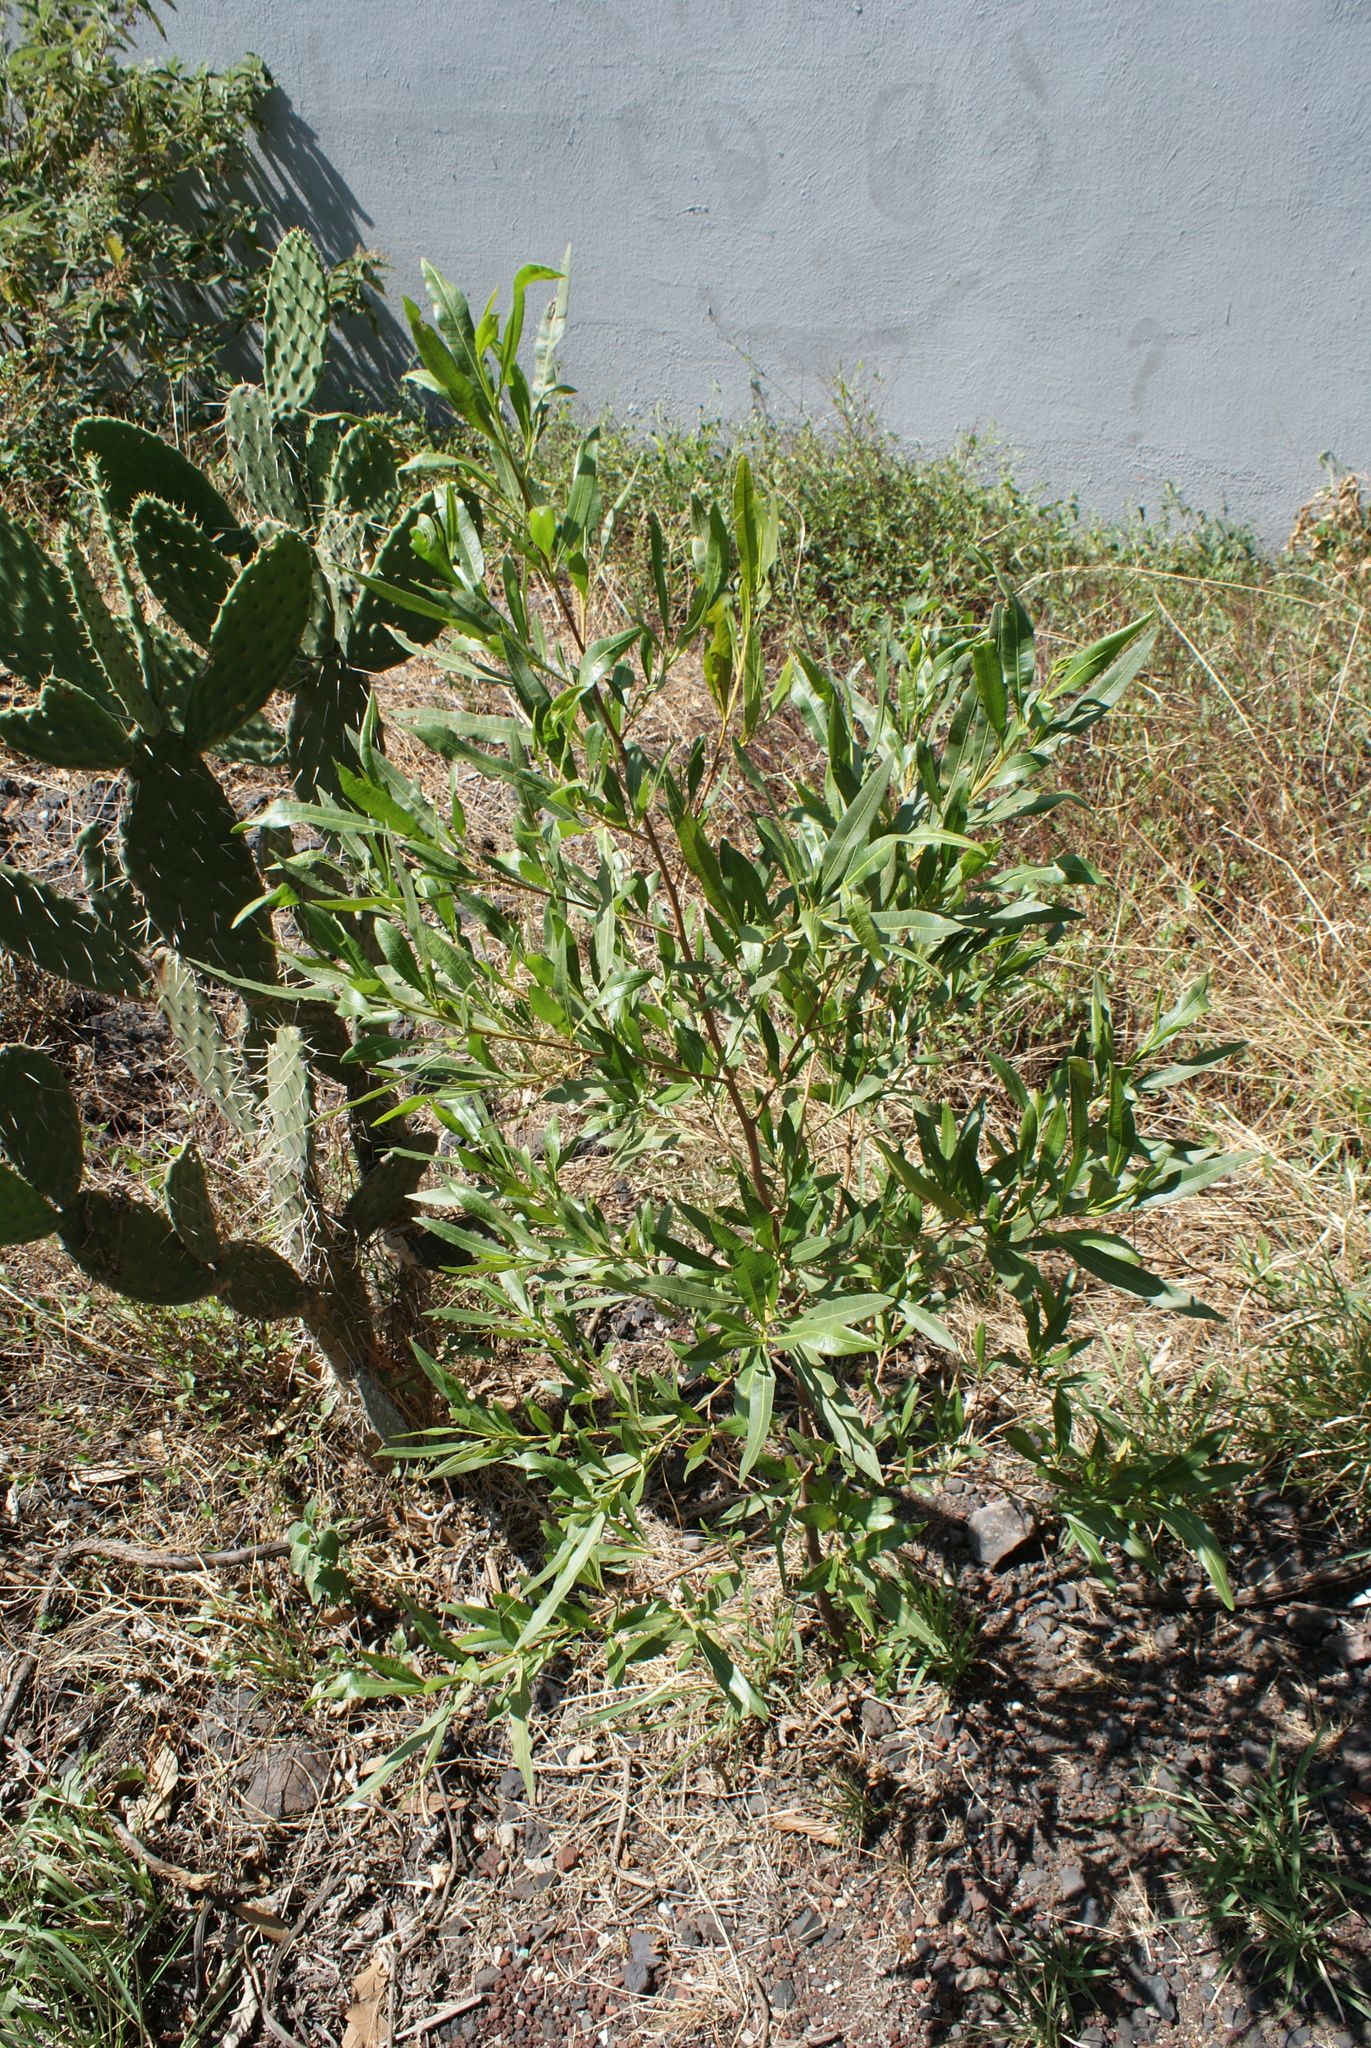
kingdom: Plantae
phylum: Tracheophyta
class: Magnoliopsida
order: Sapindales
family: Sapindaceae
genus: Dodonaea
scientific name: Dodonaea viscosa
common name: Hopbush
